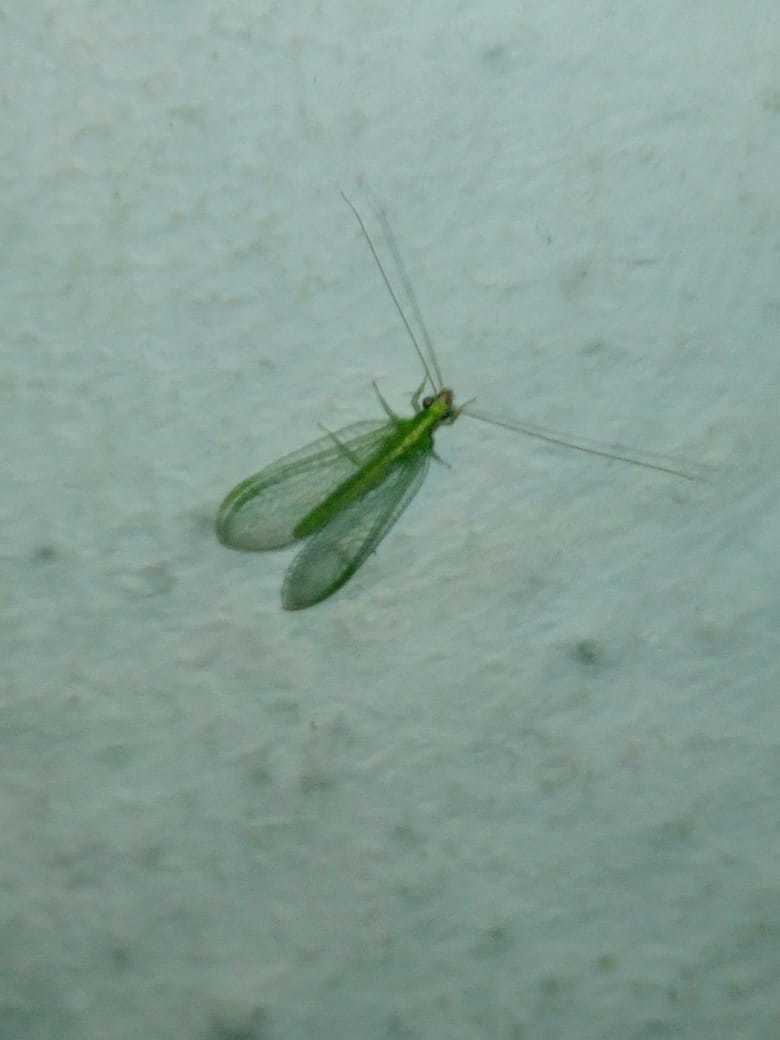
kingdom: Animalia
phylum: Arthropoda
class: Insecta
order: Neuroptera
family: Chrysopidae
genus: Chrysoperla
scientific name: Chrysoperla
